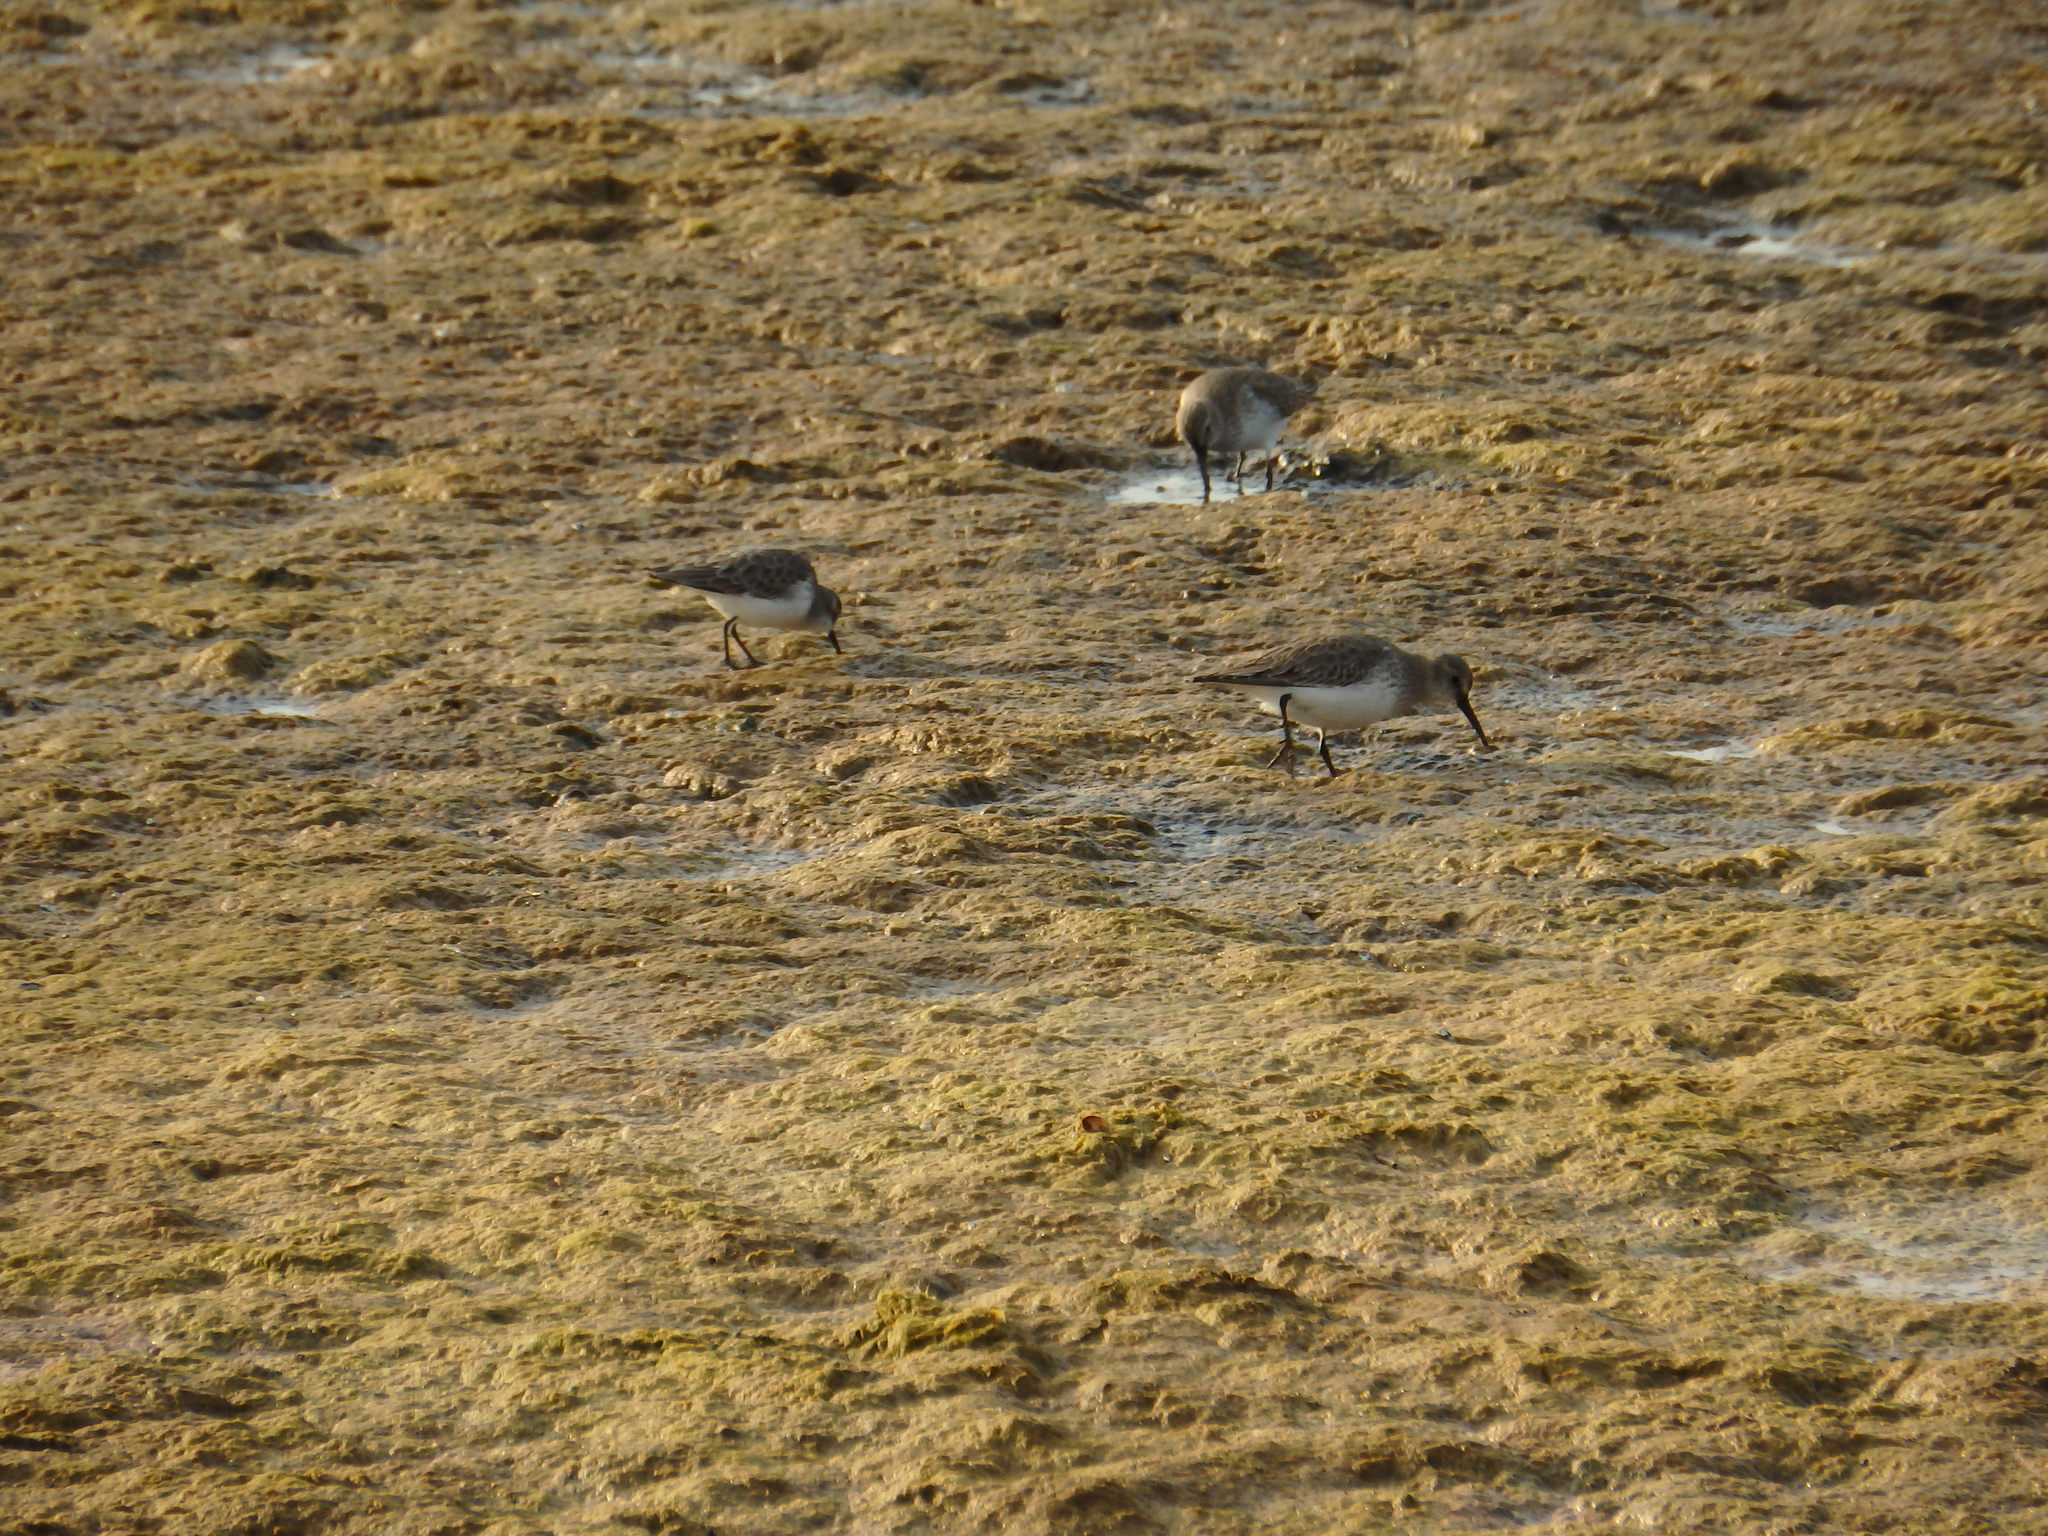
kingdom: Animalia
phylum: Chordata
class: Aves
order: Charadriiformes
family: Scolopacidae
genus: Calidris
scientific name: Calidris alpina
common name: Dunlin
